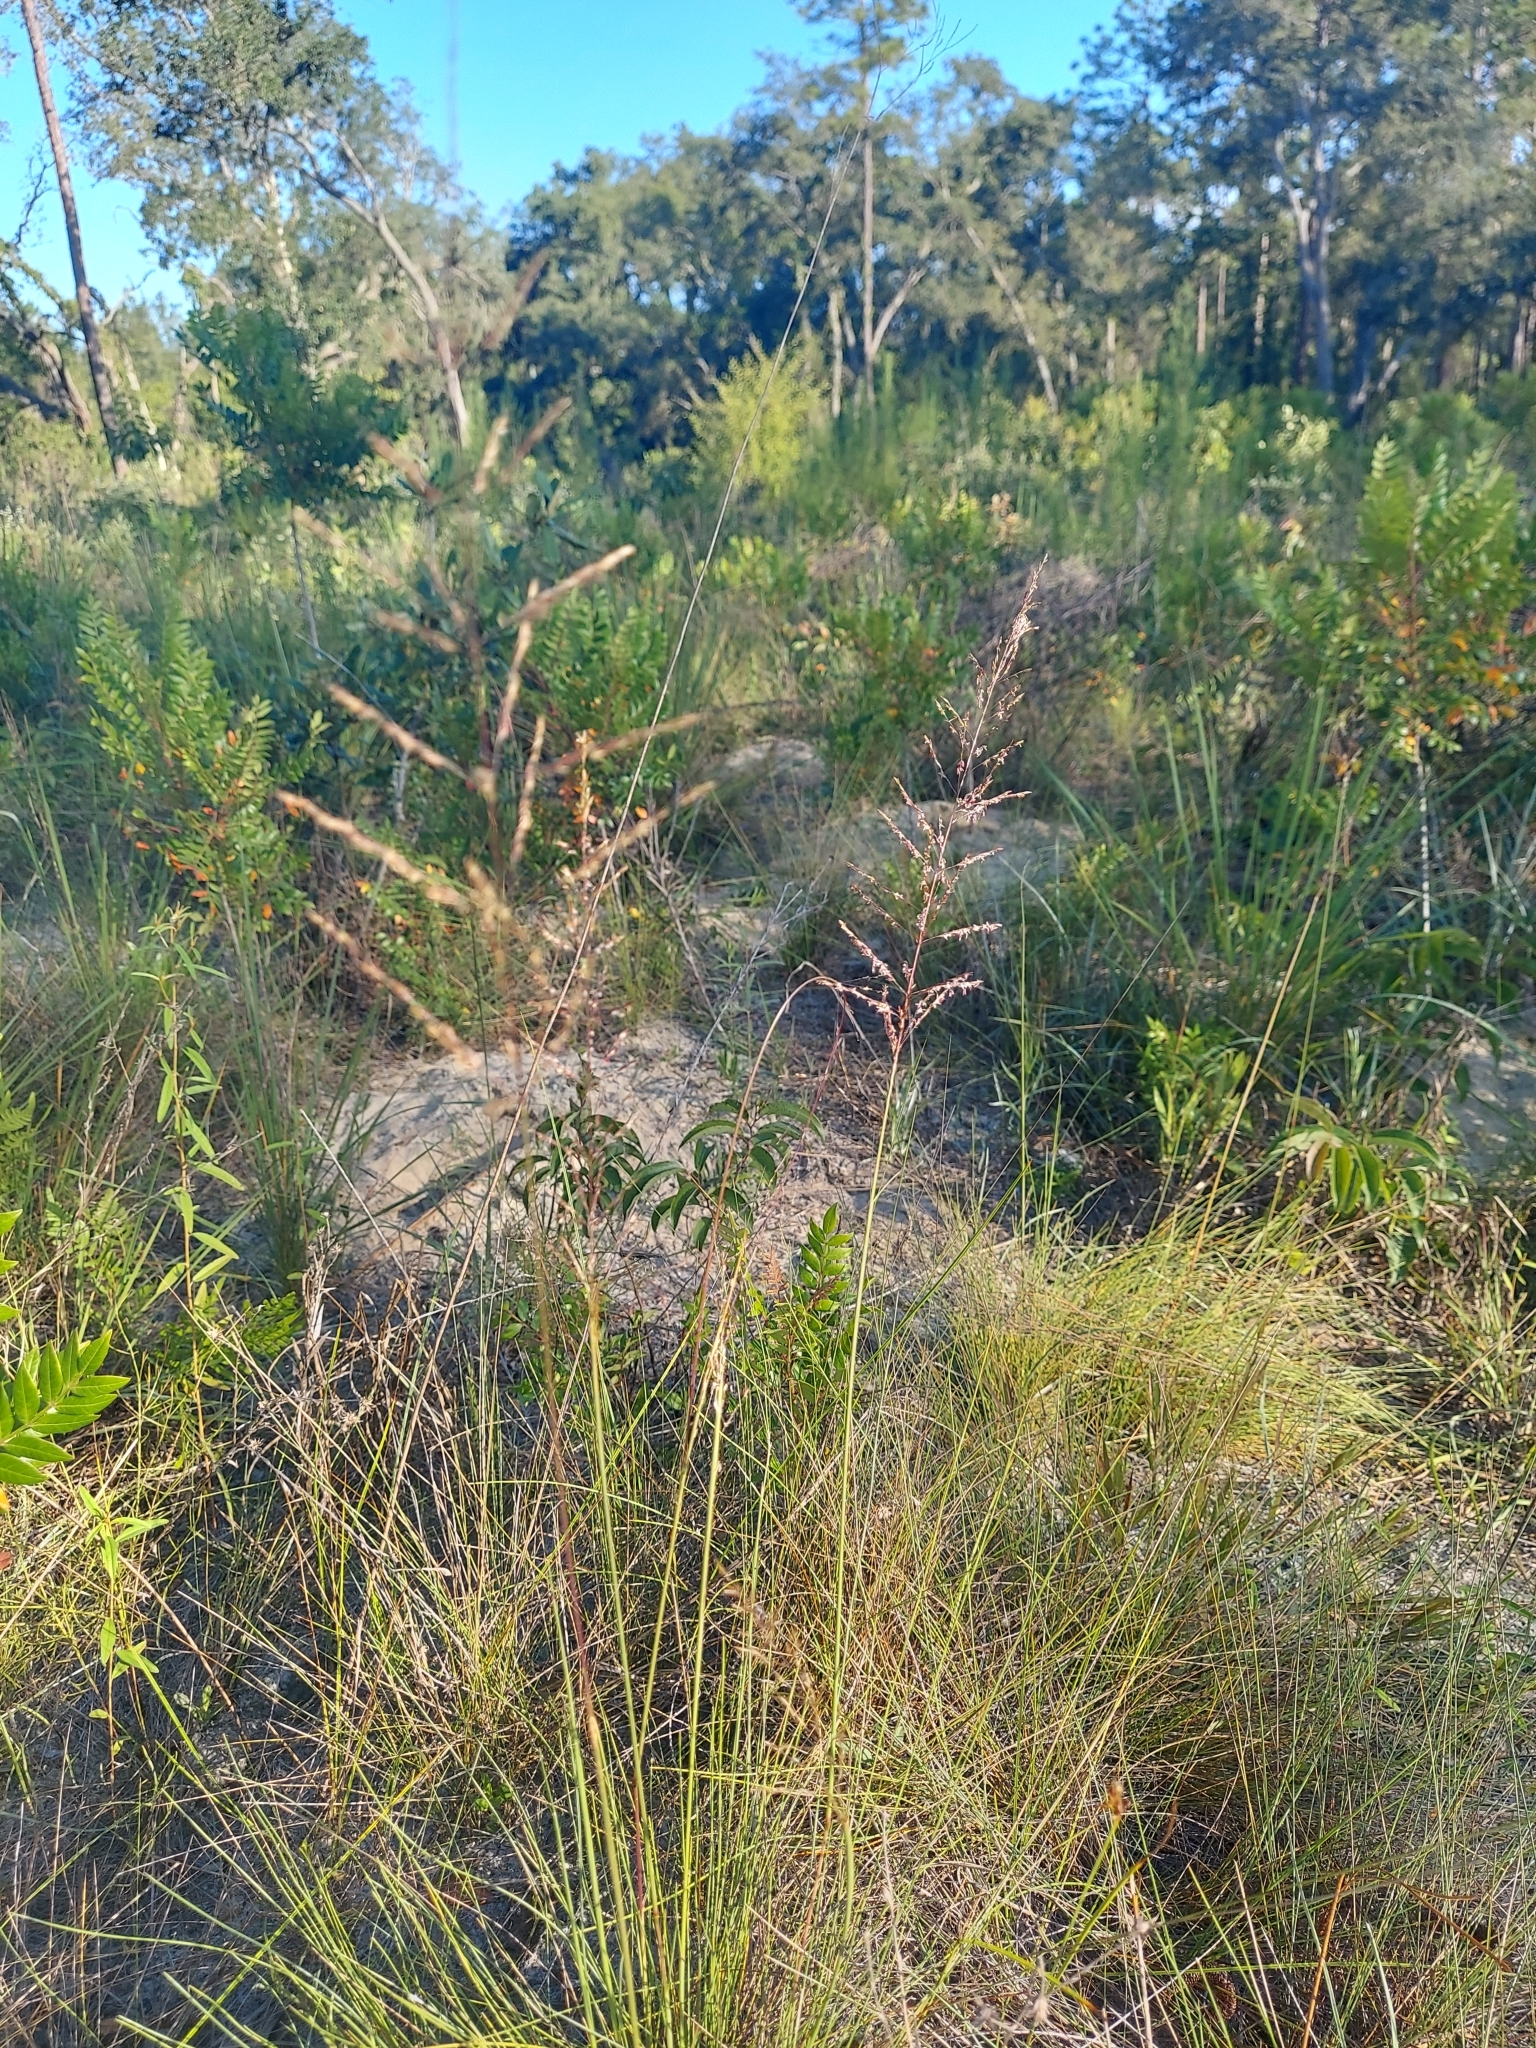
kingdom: Plantae
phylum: Tracheophyta
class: Liliopsida
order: Poales
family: Poaceae
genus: Sporobolus
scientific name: Sporobolus junceus
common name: Lizard grass
